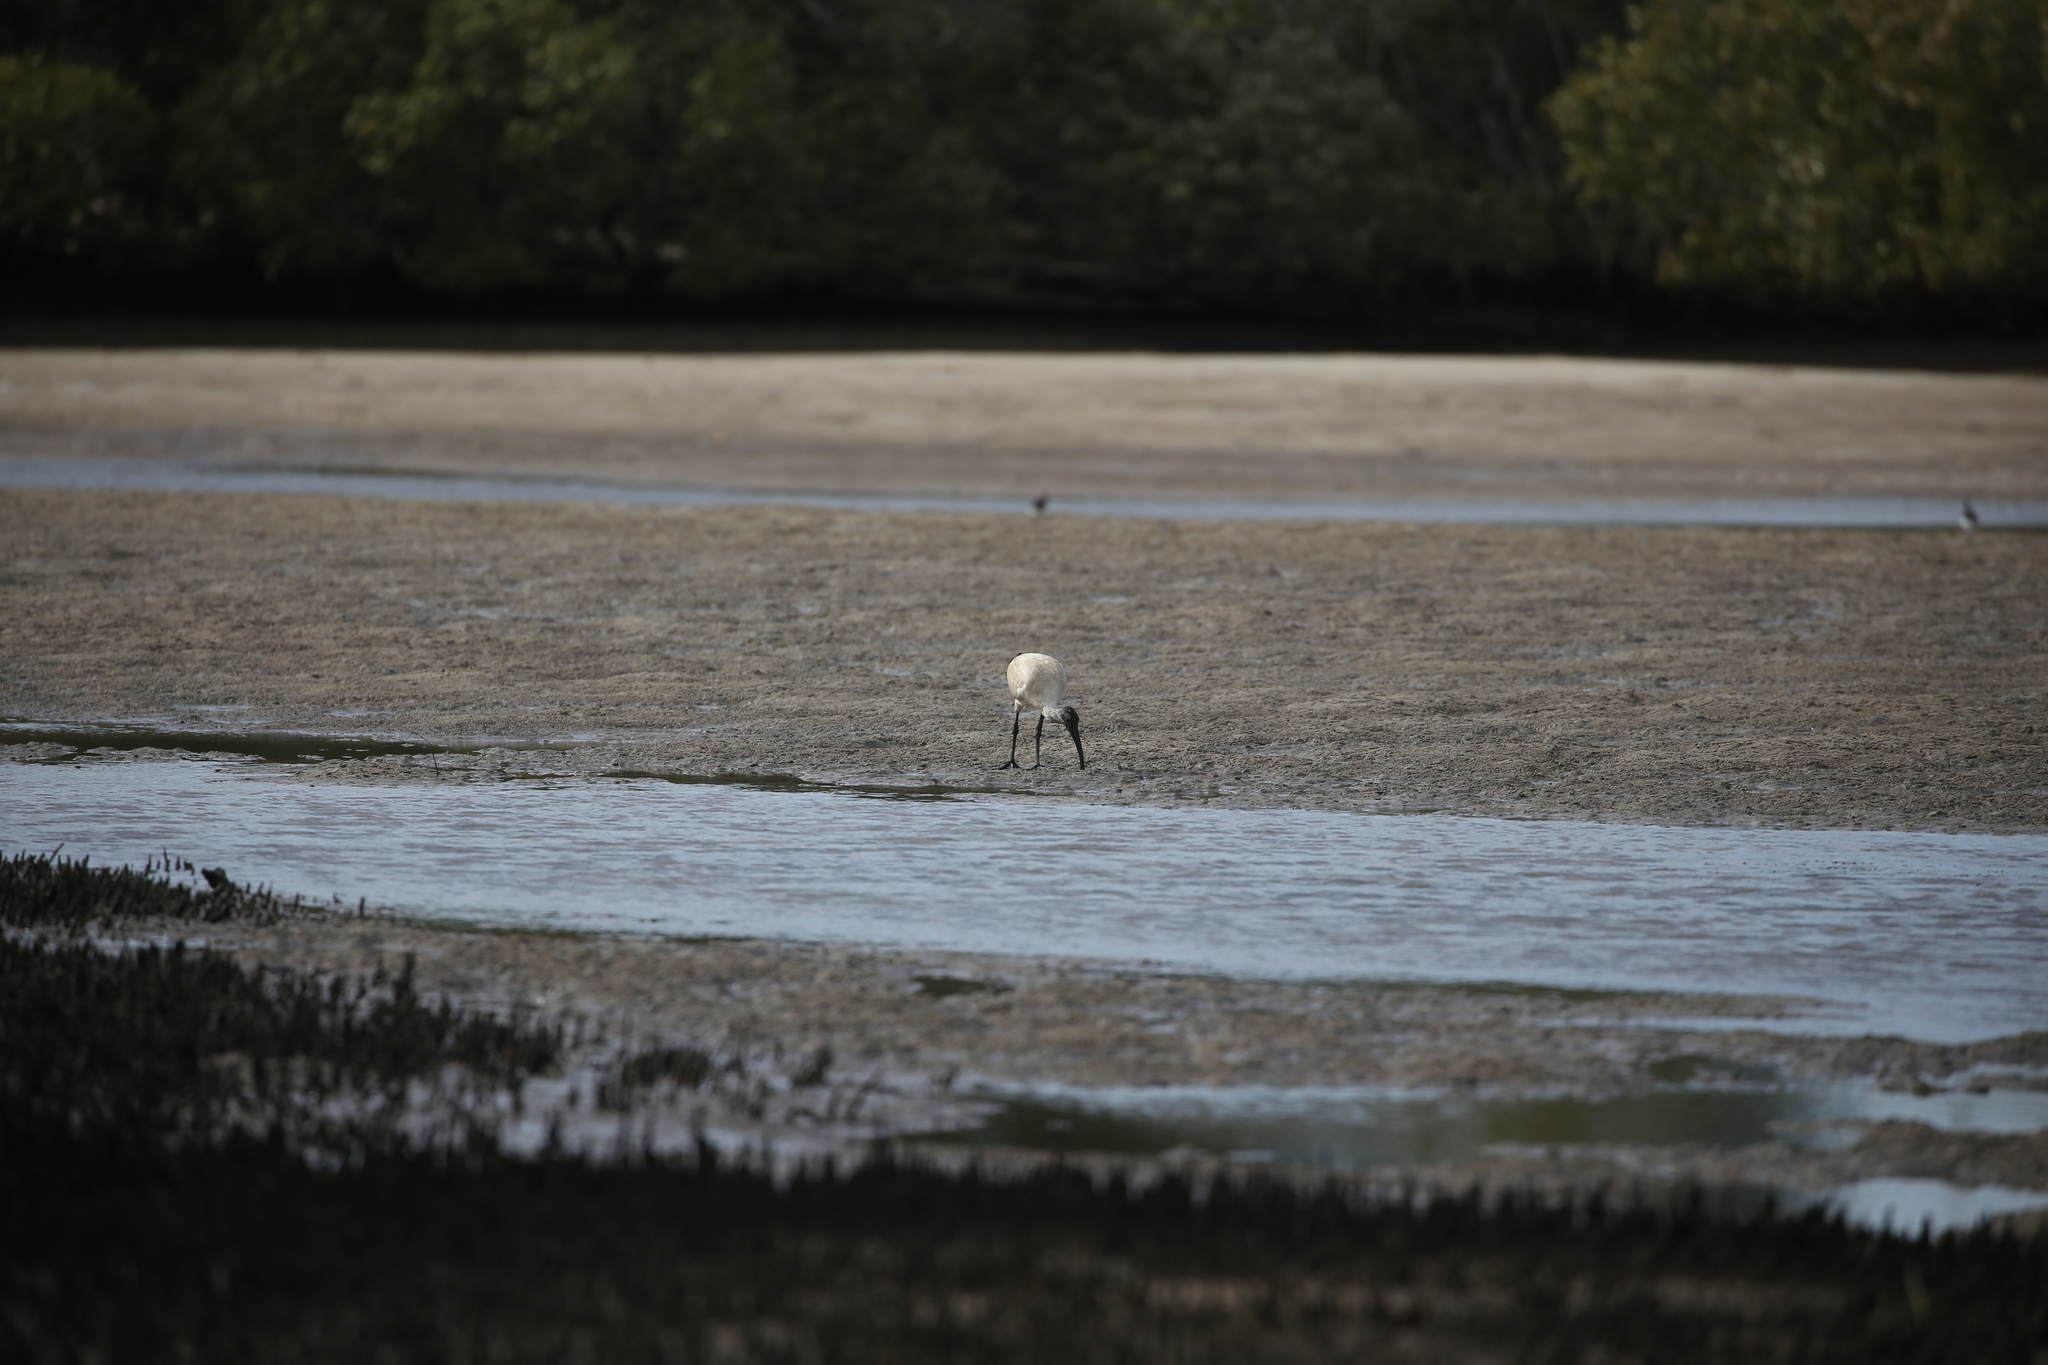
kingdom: Animalia
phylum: Chordata
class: Aves
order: Pelecaniformes
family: Threskiornithidae
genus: Threskiornis
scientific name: Threskiornis molucca
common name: Australian white ibis
